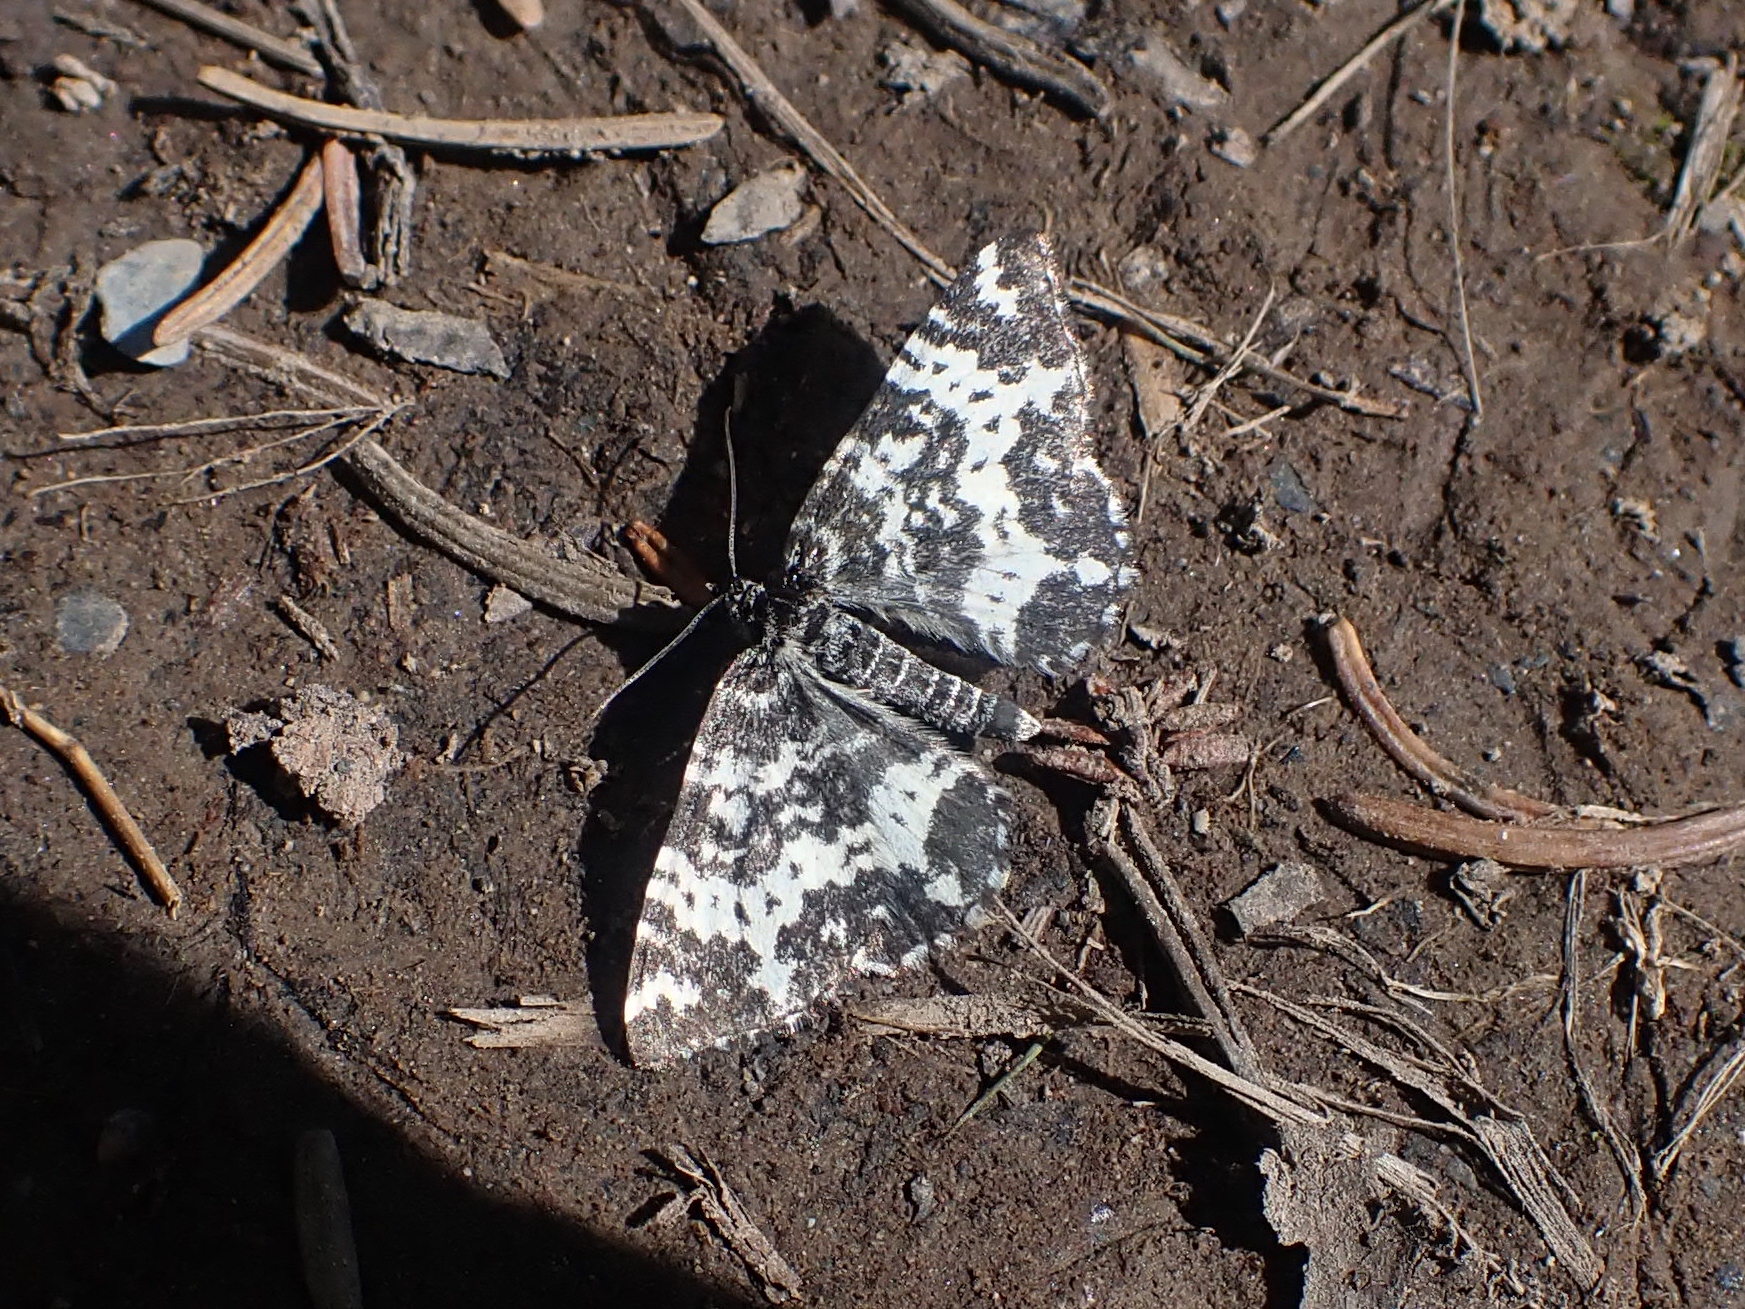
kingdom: Animalia
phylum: Arthropoda
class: Insecta
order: Lepidoptera
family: Geometridae
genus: Rheumaptera
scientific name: Rheumaptera
